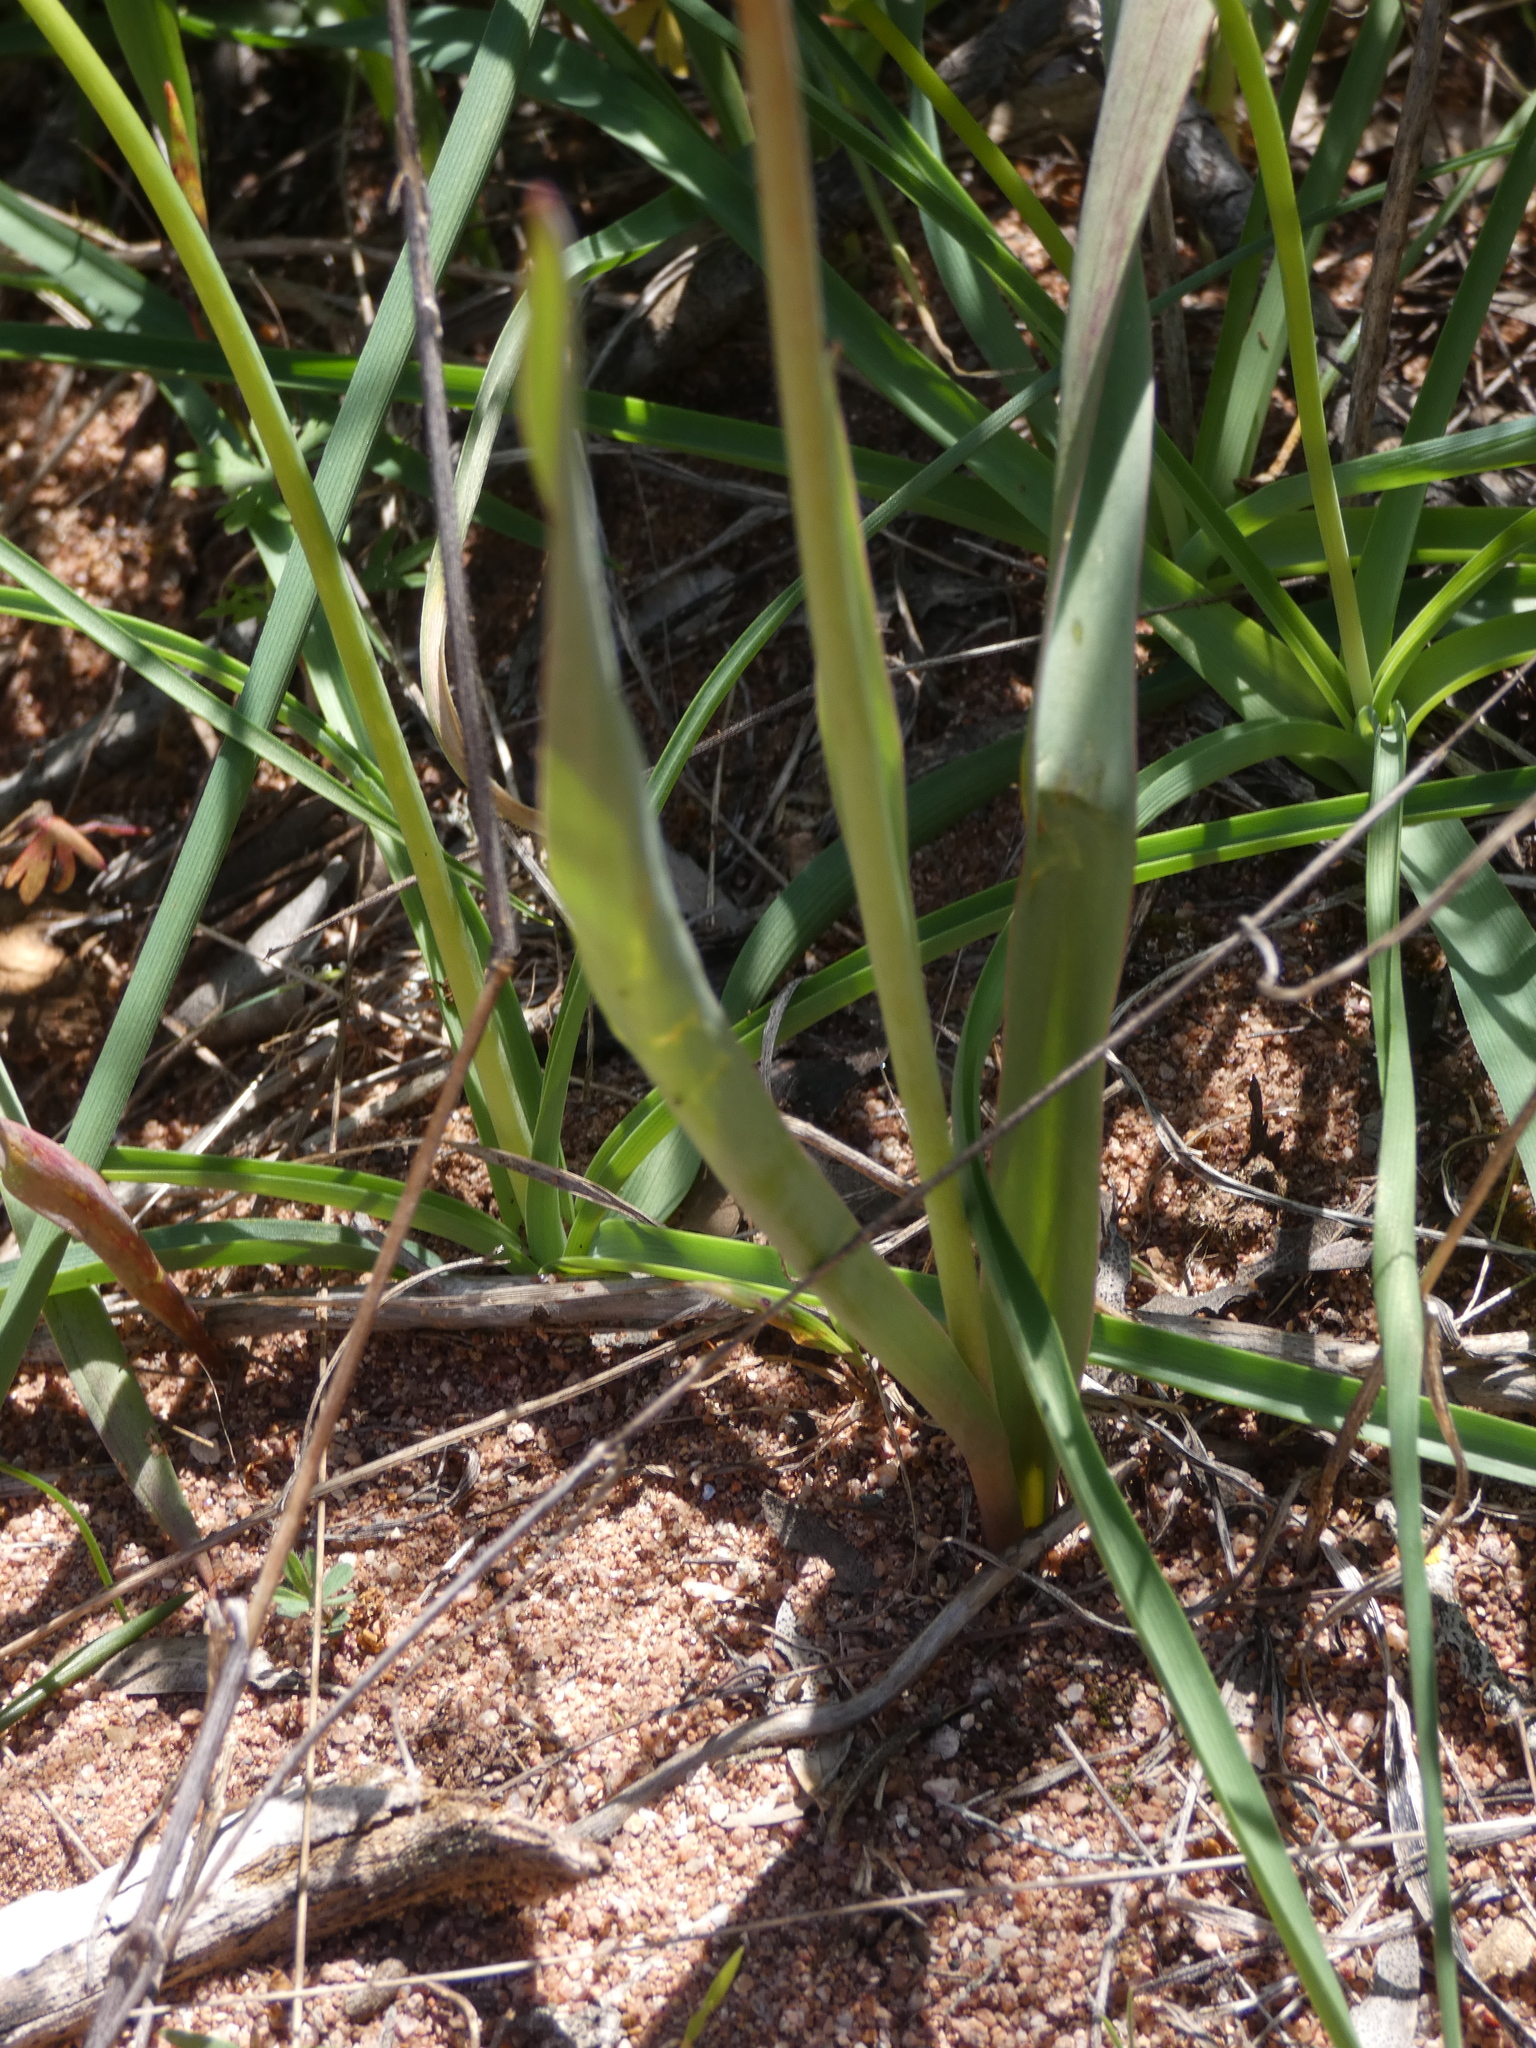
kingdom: Plantae
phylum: Tracheophyta
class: Liliopsida
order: Liliales
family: Liliaceae
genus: Tulipa
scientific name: Tulipa sylvestris
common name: Wild tulip
